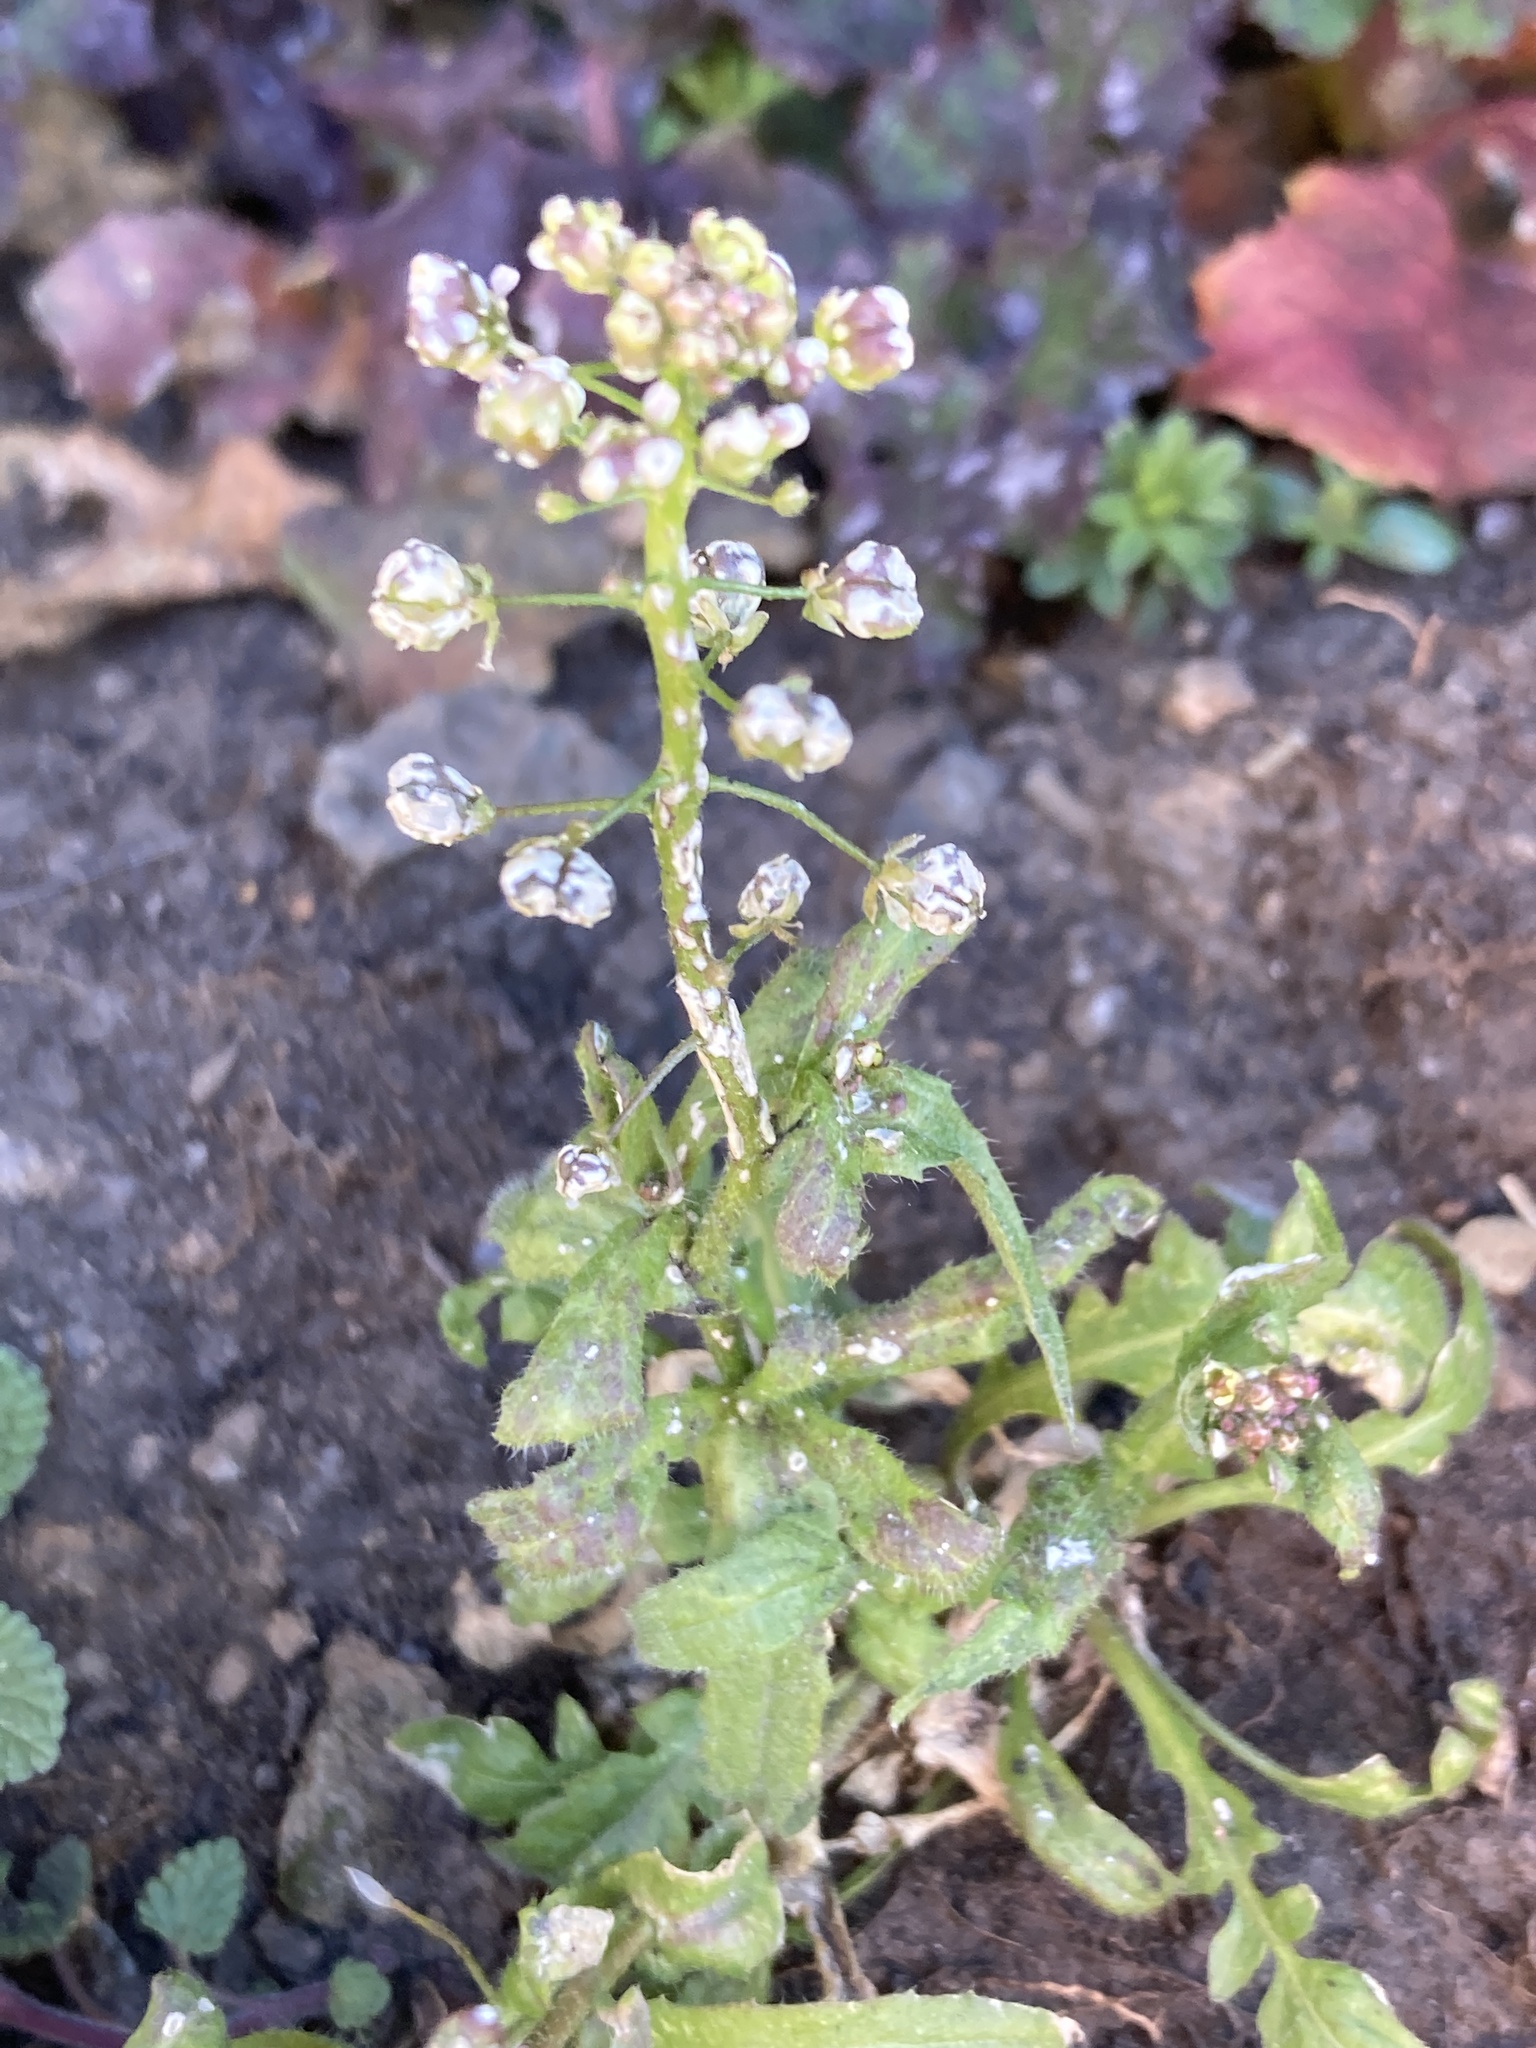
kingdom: Plantae
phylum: Tracheophyta
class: Magnoliopsida
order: Brassicales
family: Brassicaceae
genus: Capsella
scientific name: Capsella bursa-pastoris
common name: Shepherd's purse
